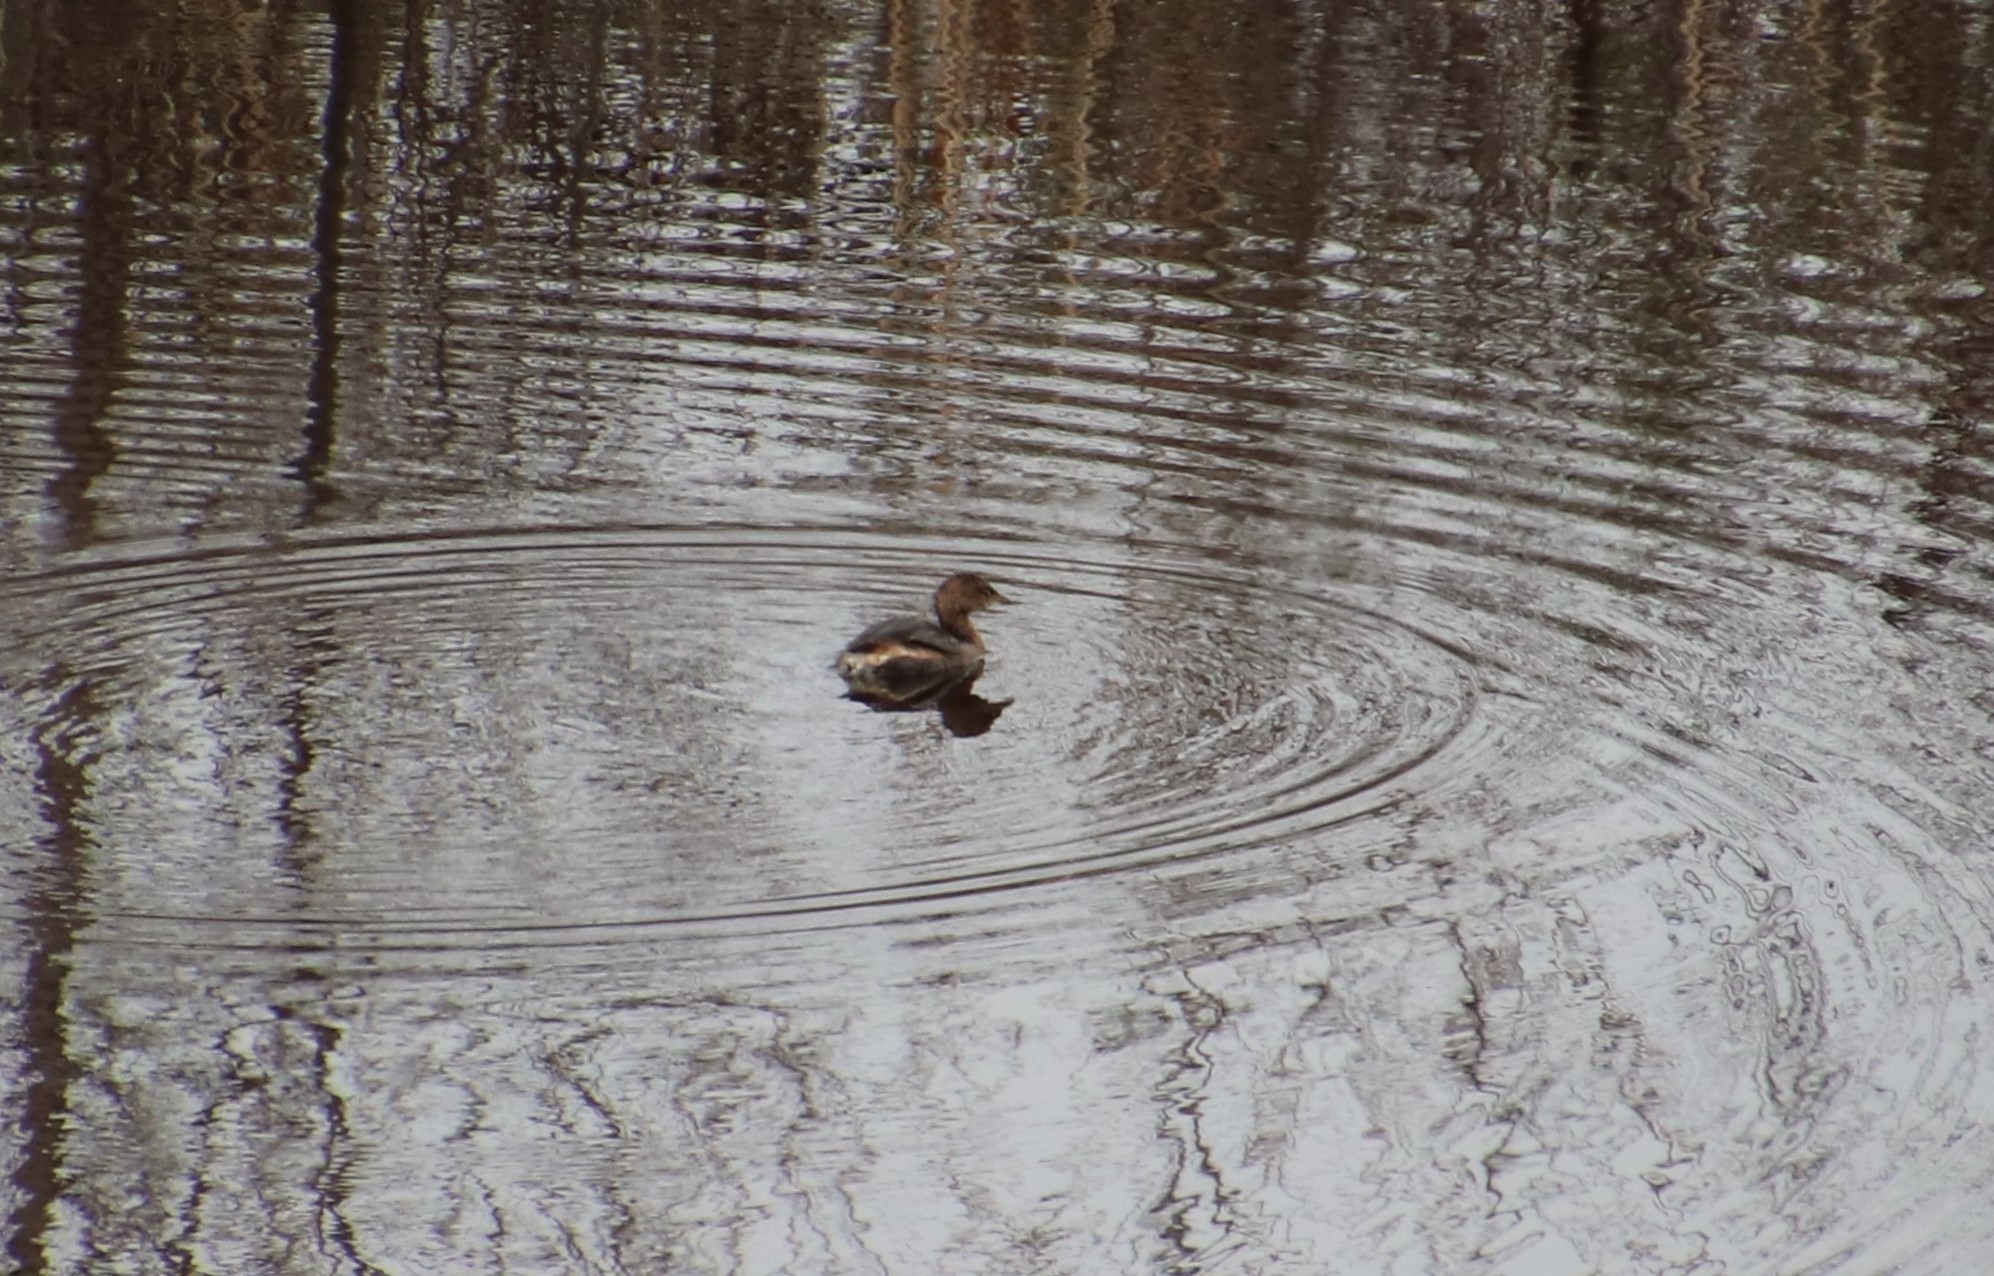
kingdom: Animalia
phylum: Chordata
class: Aves
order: Podicipediformes
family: Podicipedidae
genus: Podilymbus
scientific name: Podilymbus podiceps
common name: Pied-billed grebe
